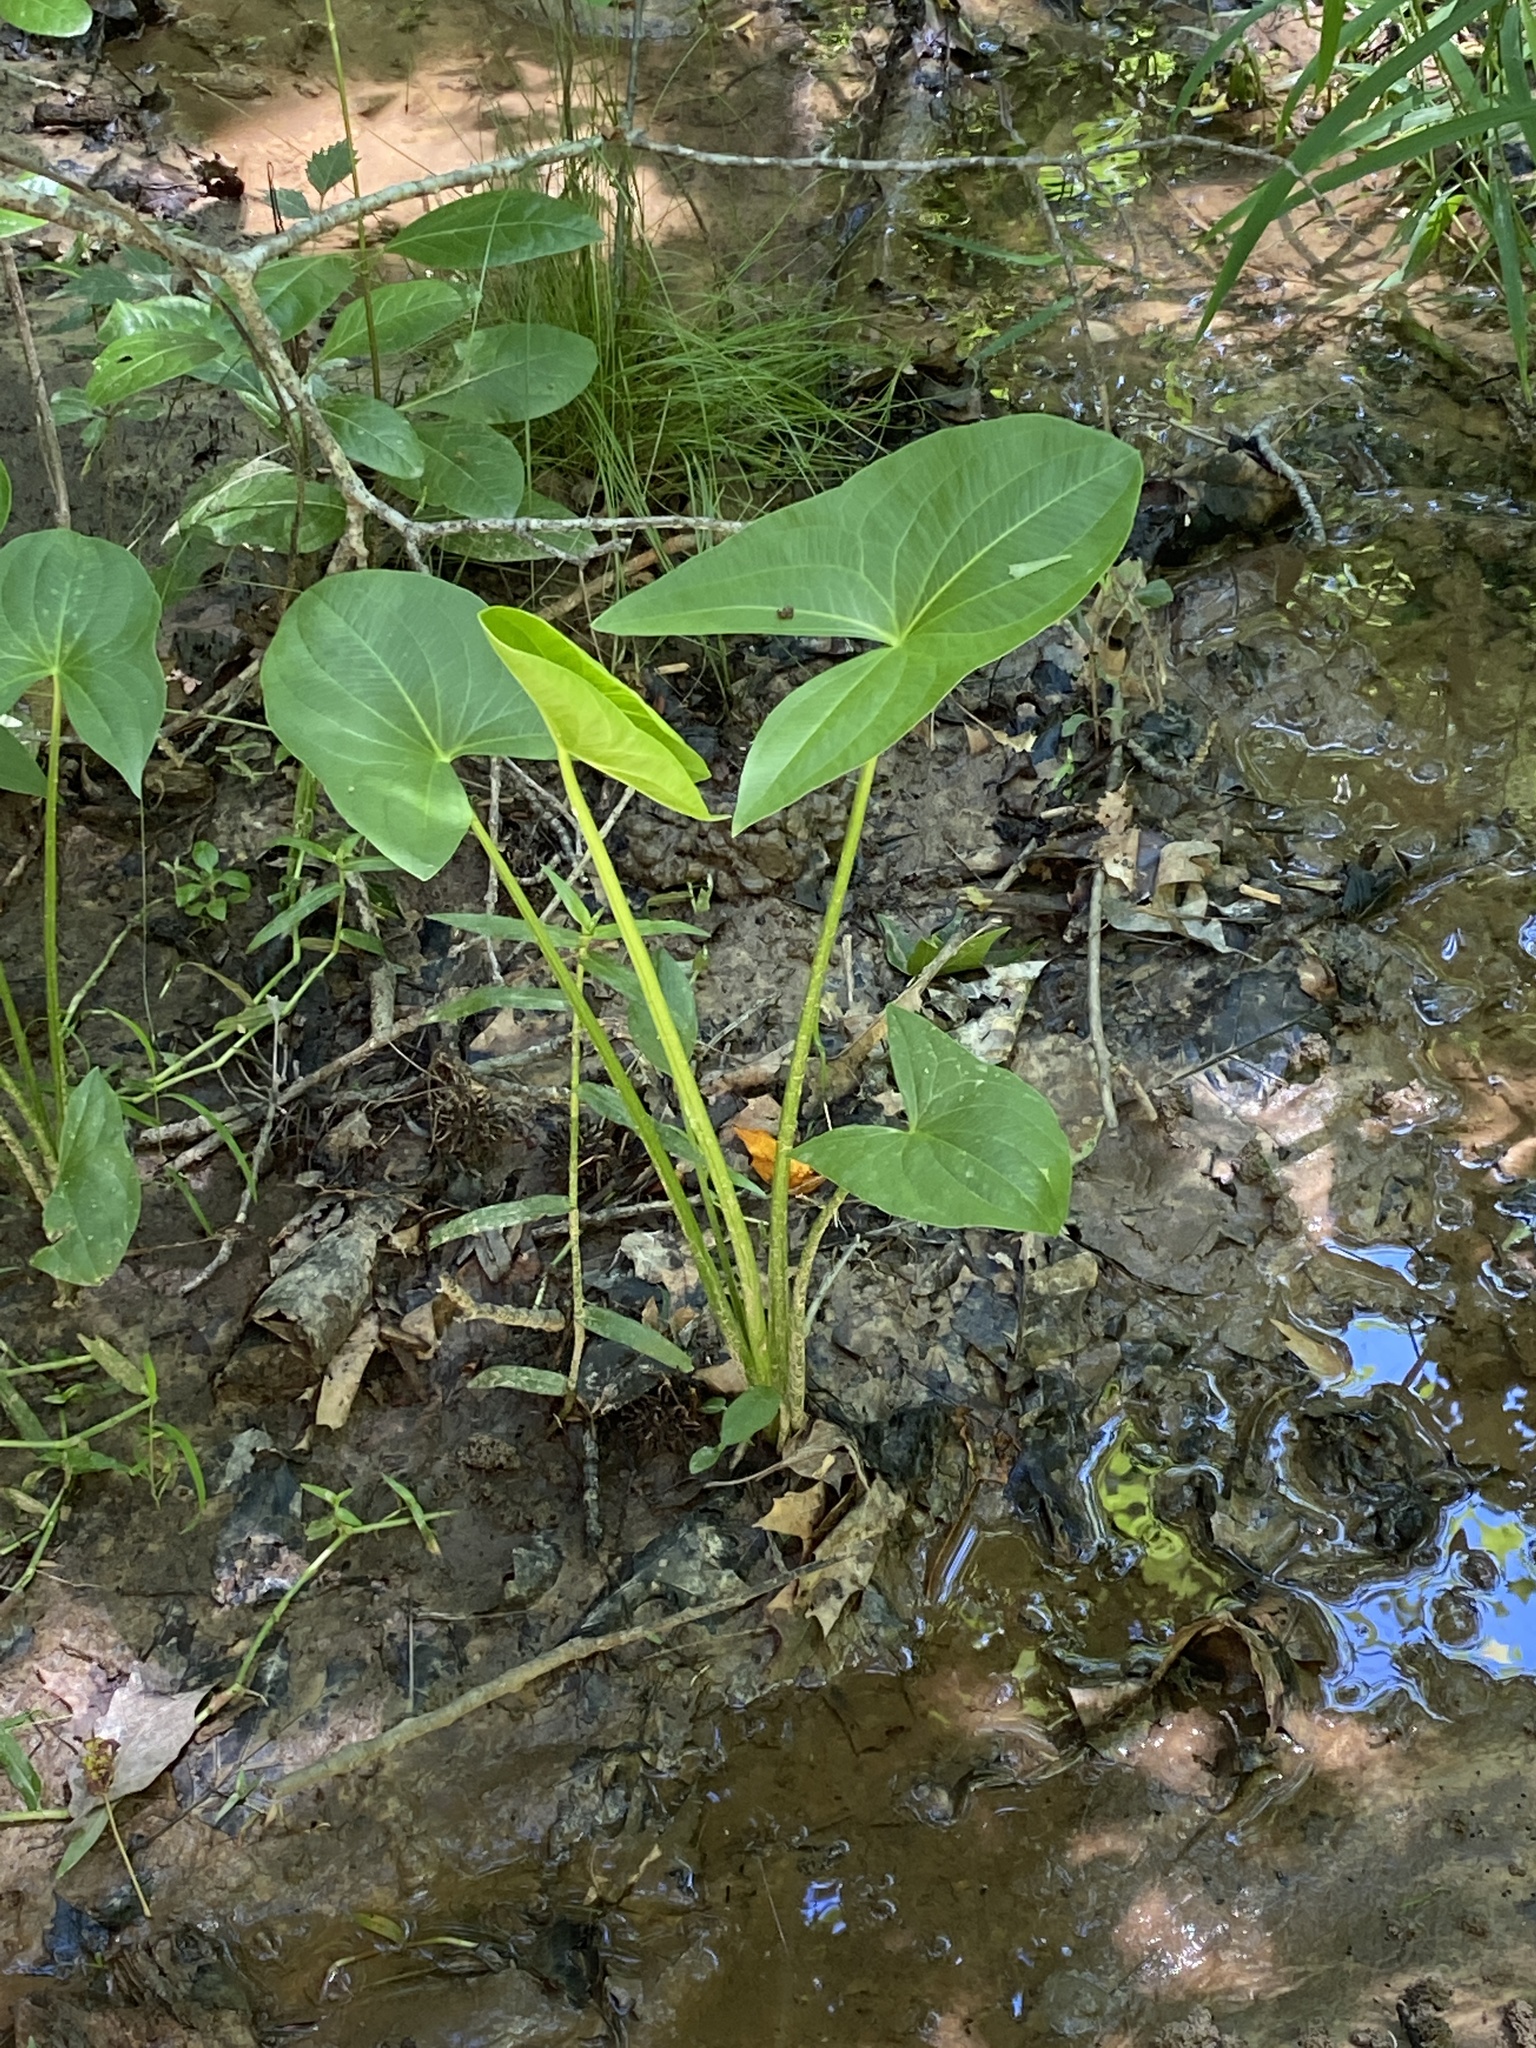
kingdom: Plantae
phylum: Tracheophyta
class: Liliopsida
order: Alismatales
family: Alismataceae
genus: Sagittaria
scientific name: Sagittaria latifolia
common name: Duck-potato
